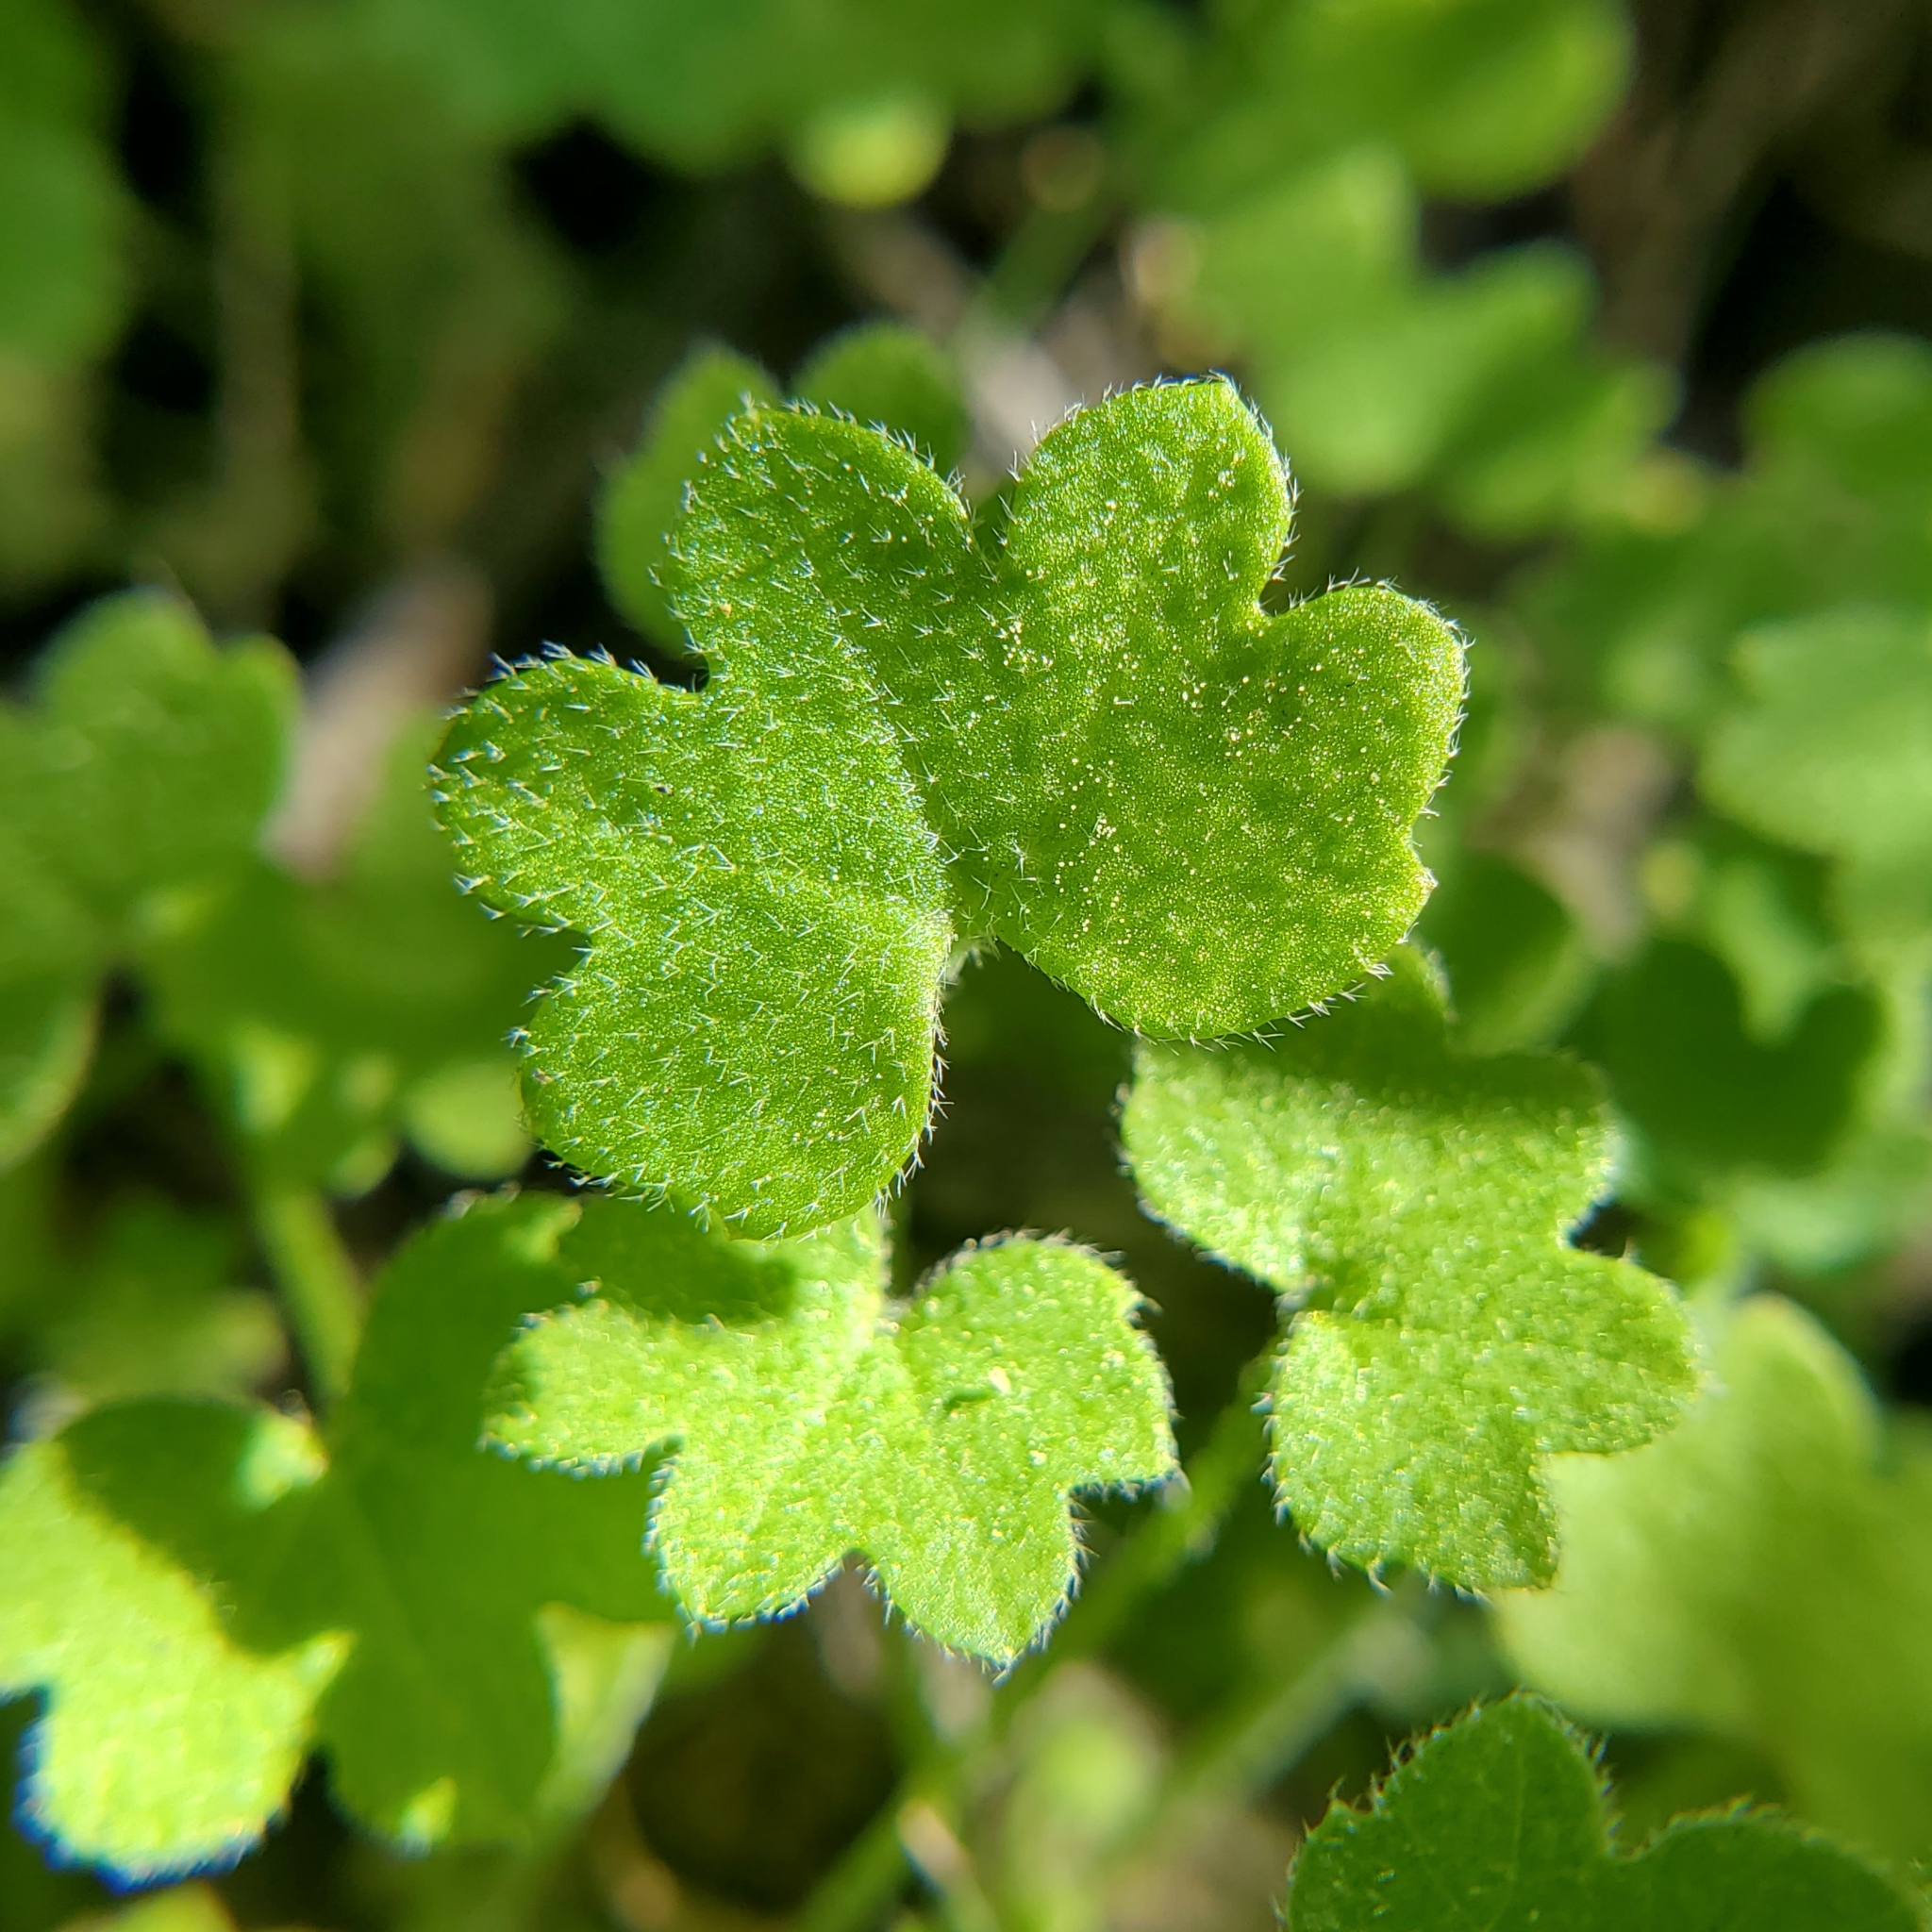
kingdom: Plantae
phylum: Tracheophyta
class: Magnoliopsida
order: Apiales
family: Apiaceae
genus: Bowlesia
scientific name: Bowlesia incana
